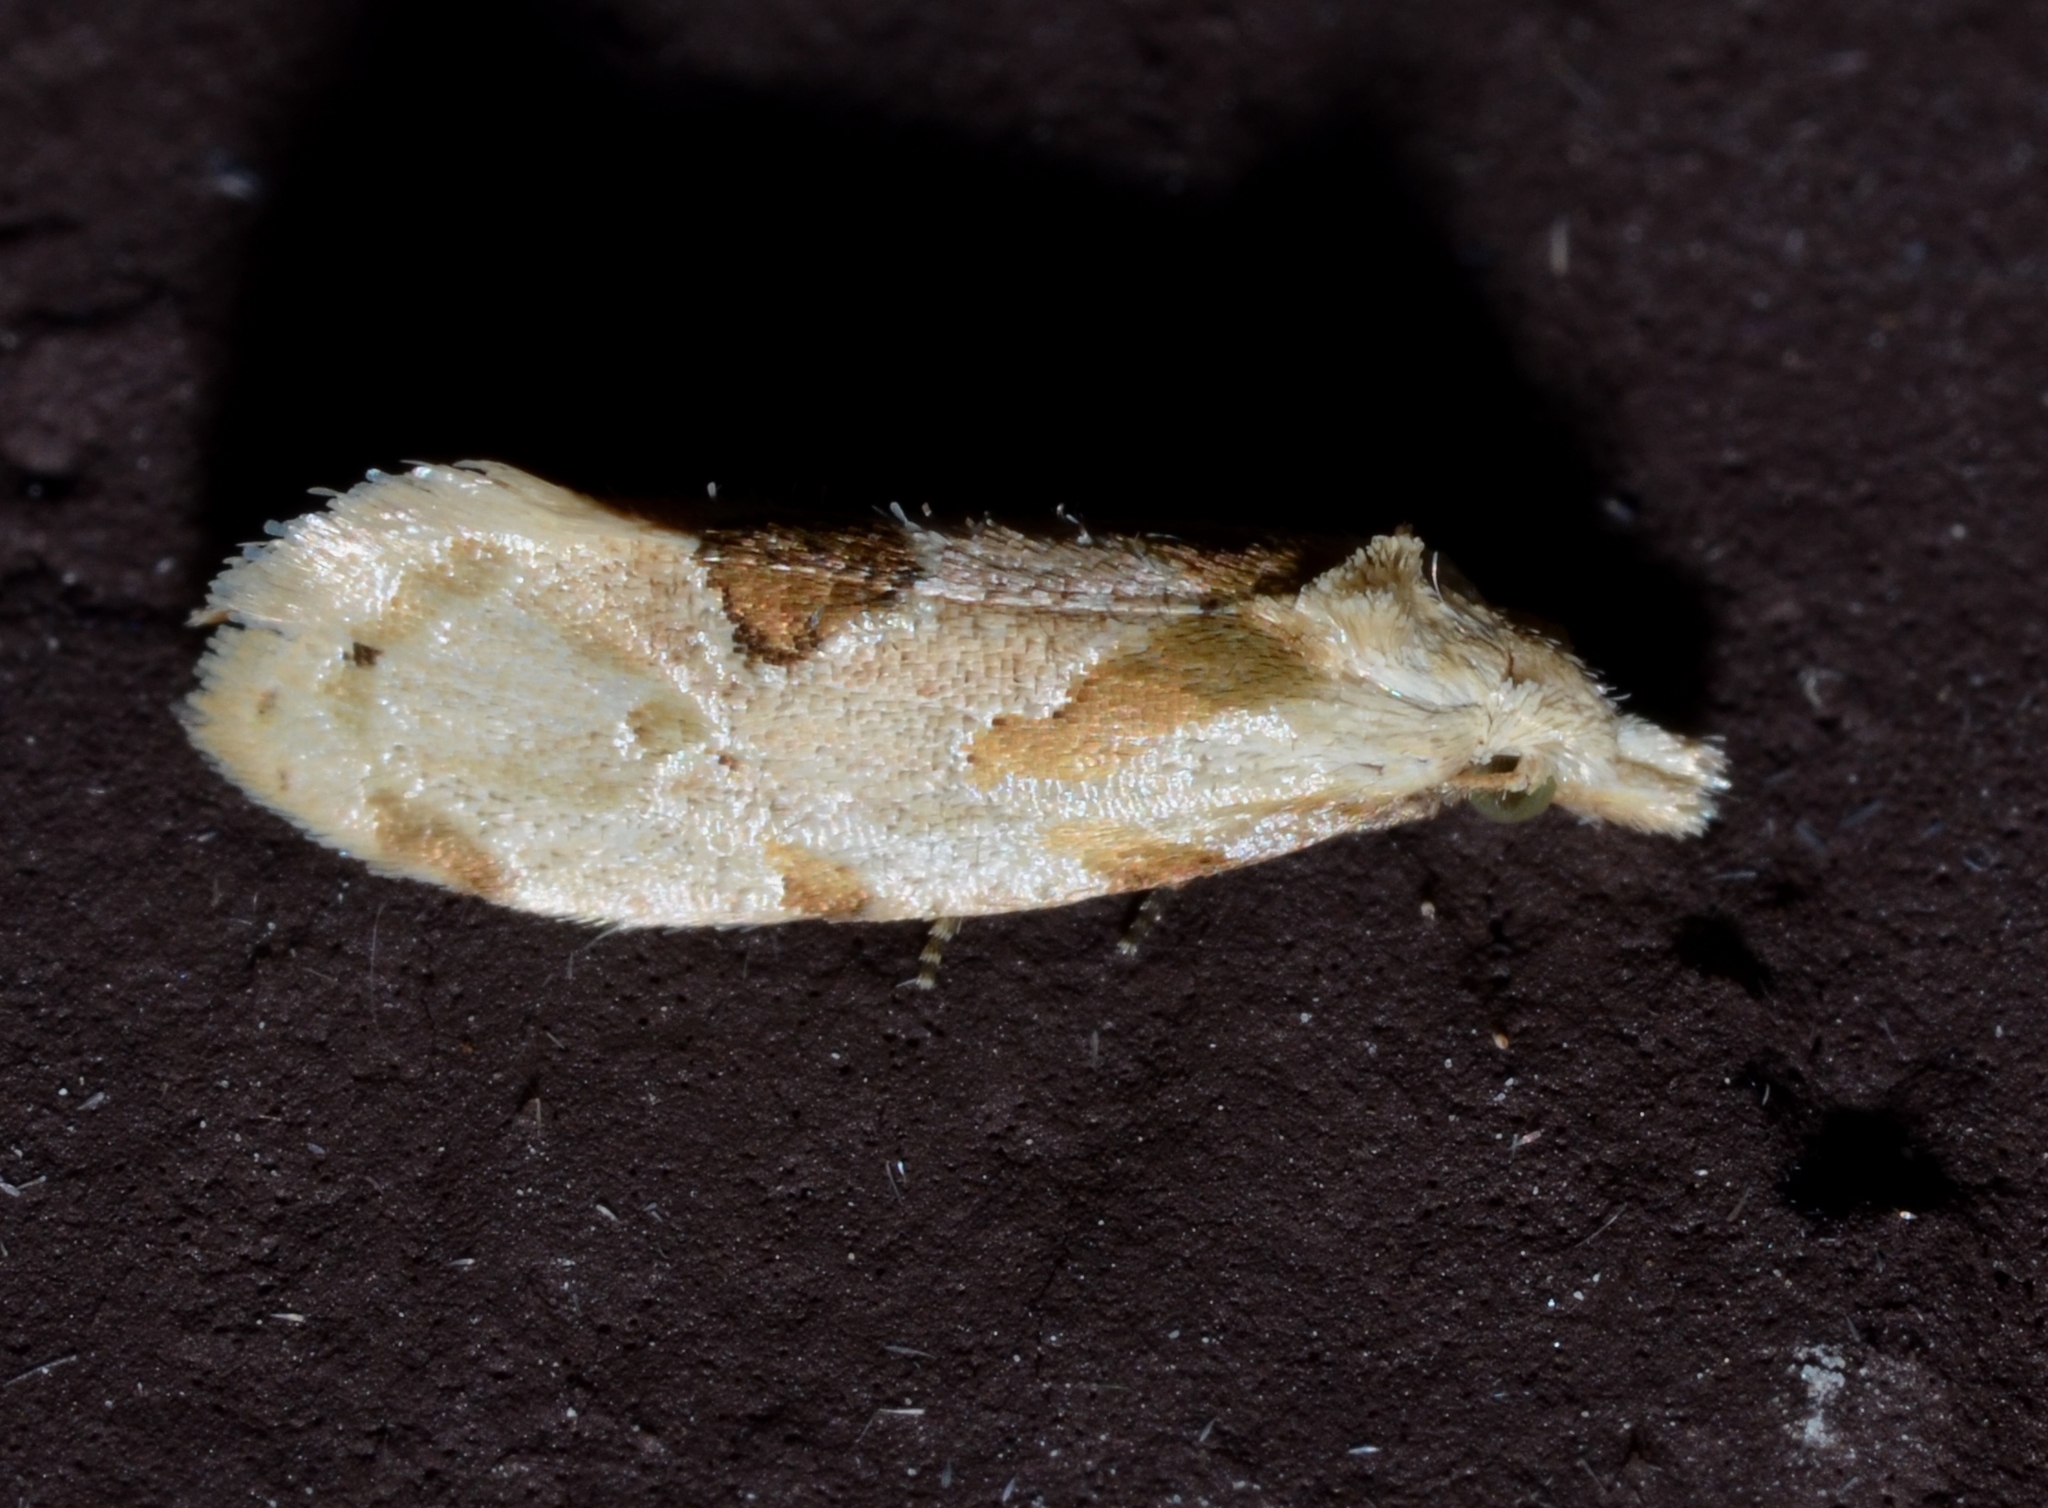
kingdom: Animalia
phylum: Arthropoda
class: Insecta
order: Lepidoptera
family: Tortricidae
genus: Aethes
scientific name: Aethes angustana
